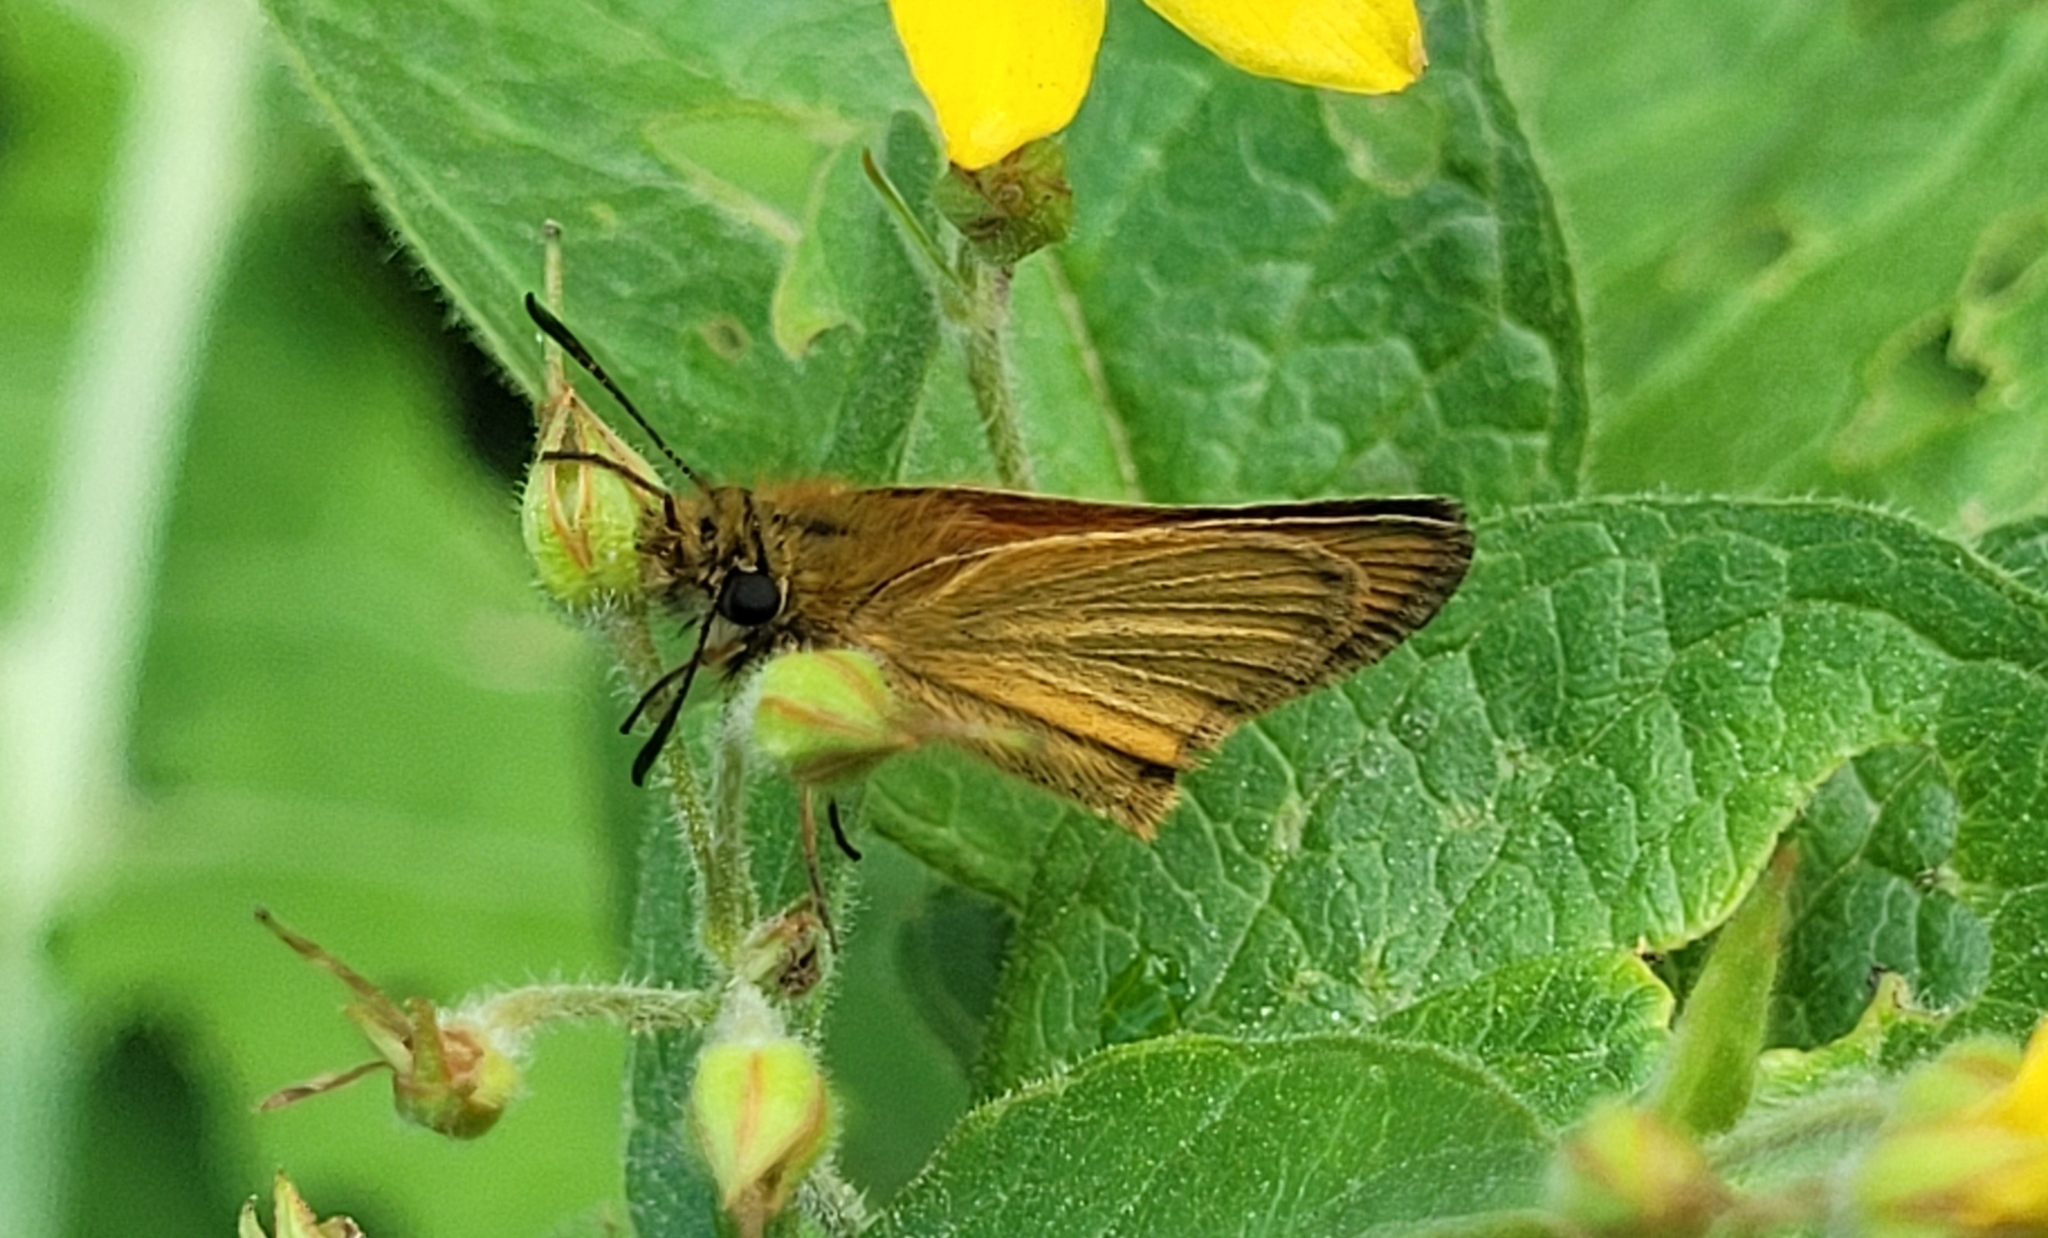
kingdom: Animalia
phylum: Arthropoda
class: Insecta
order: Lepidoptera
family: Hesperiidae
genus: Thymelicus
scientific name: Thymelicus lineola
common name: Essex skipper
